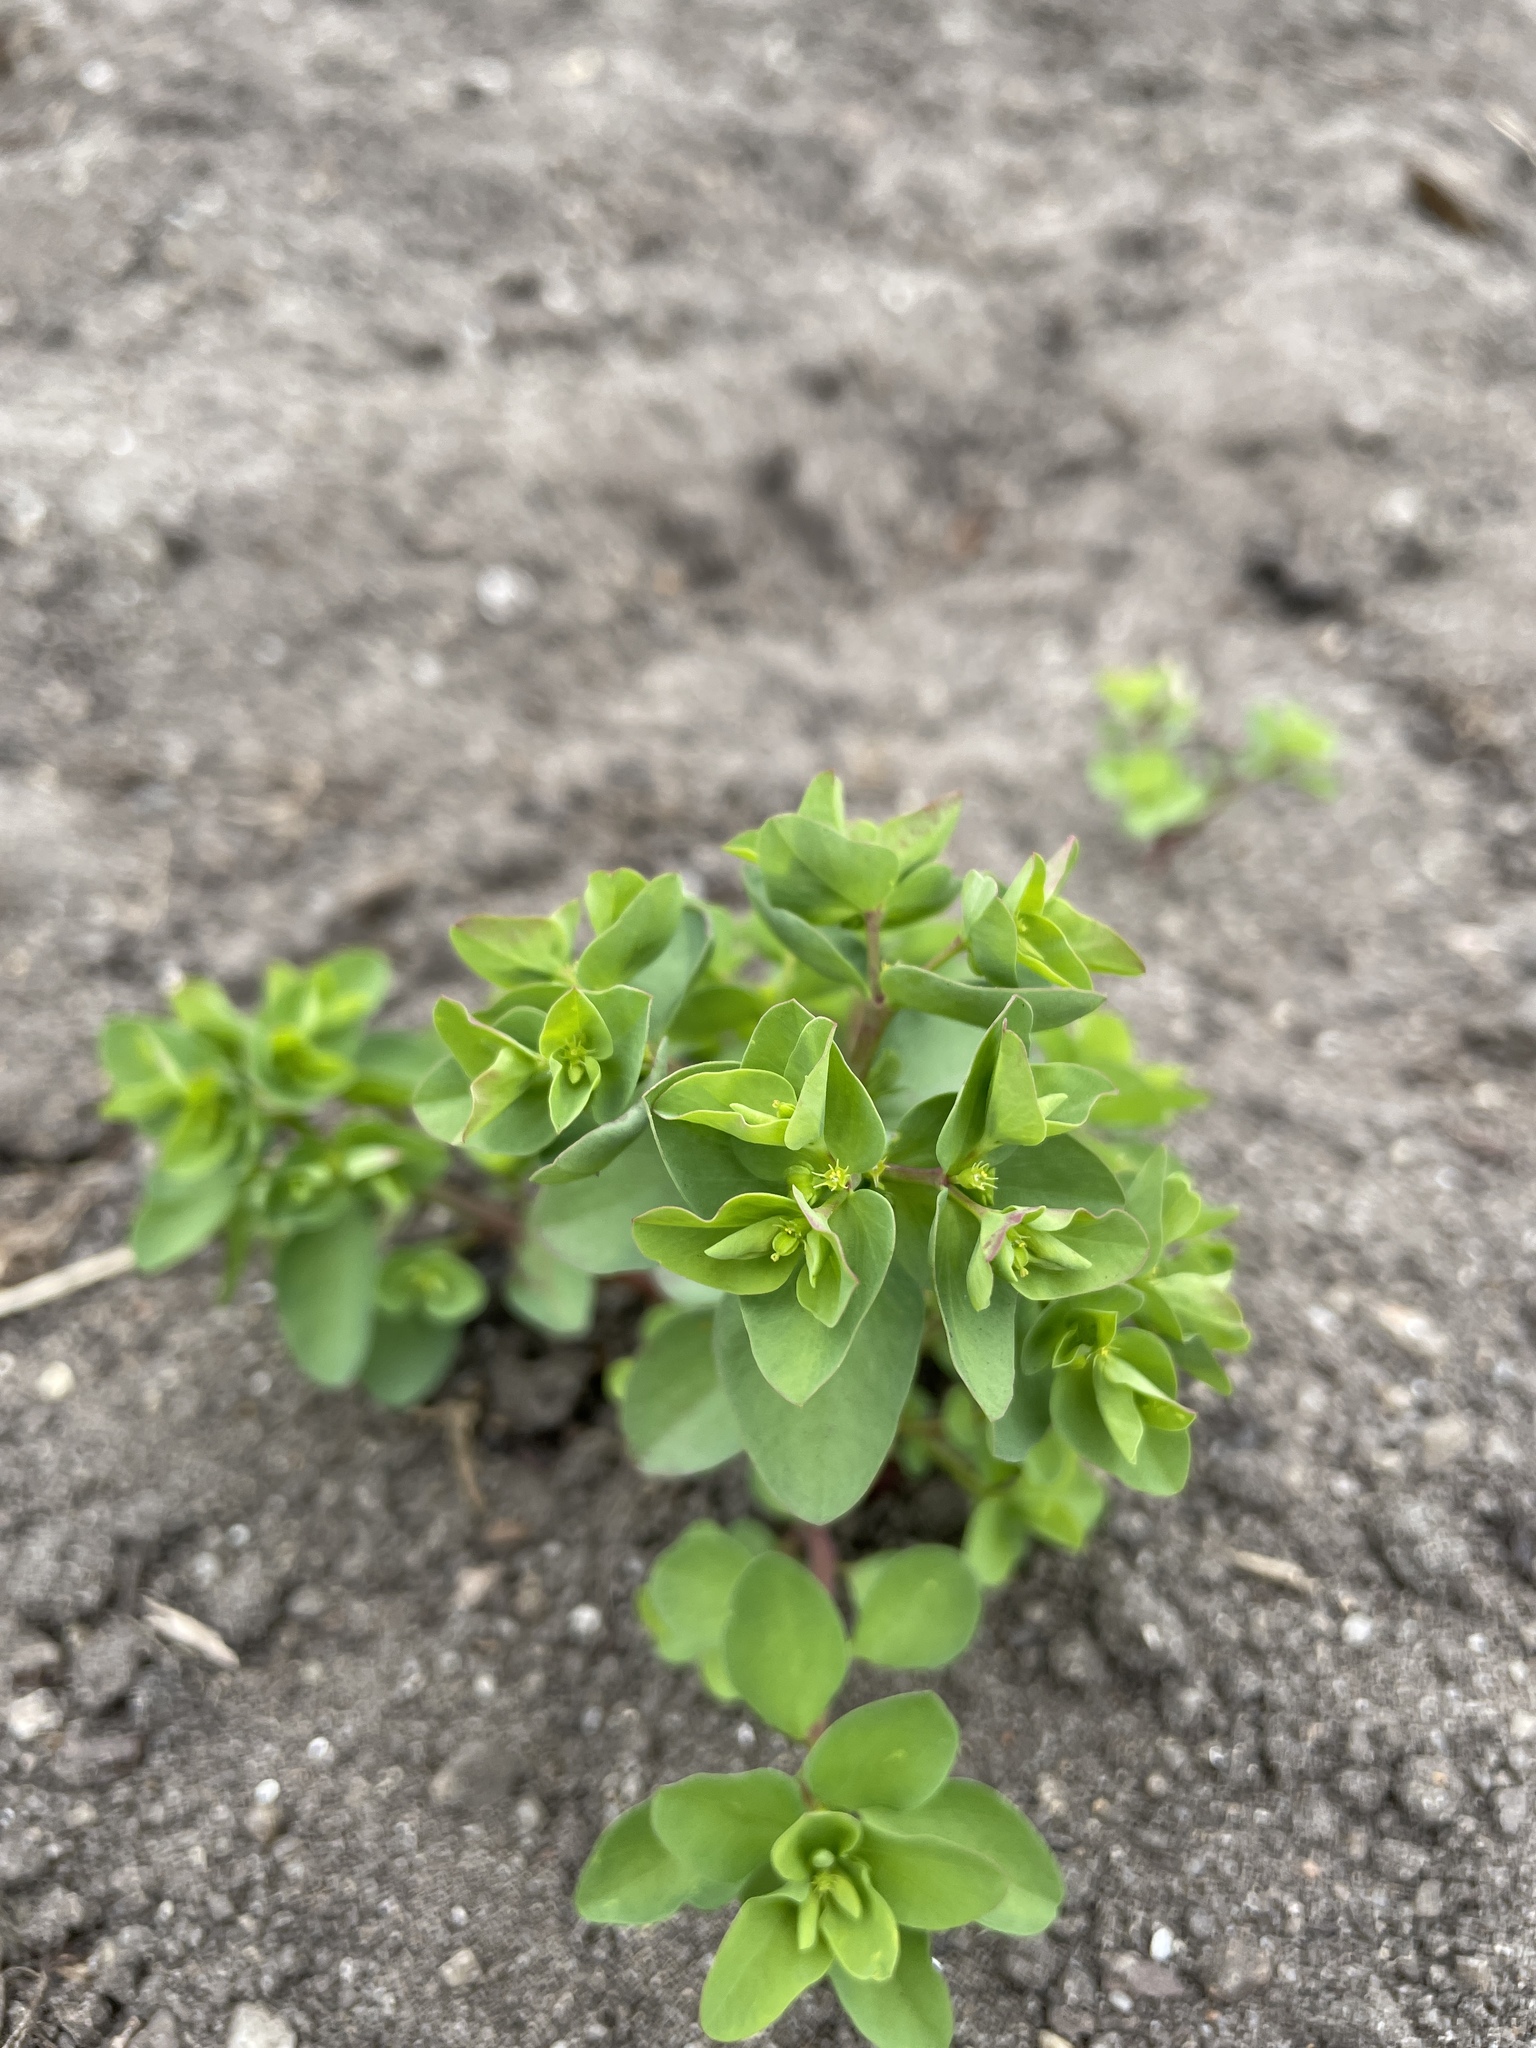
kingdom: Plantae
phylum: Tracheophyta
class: Magnoliopsida
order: Malpighiales
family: Euphorbiaceae
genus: Euphorbia
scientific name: Euphorbia peplus
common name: Petty spurge
